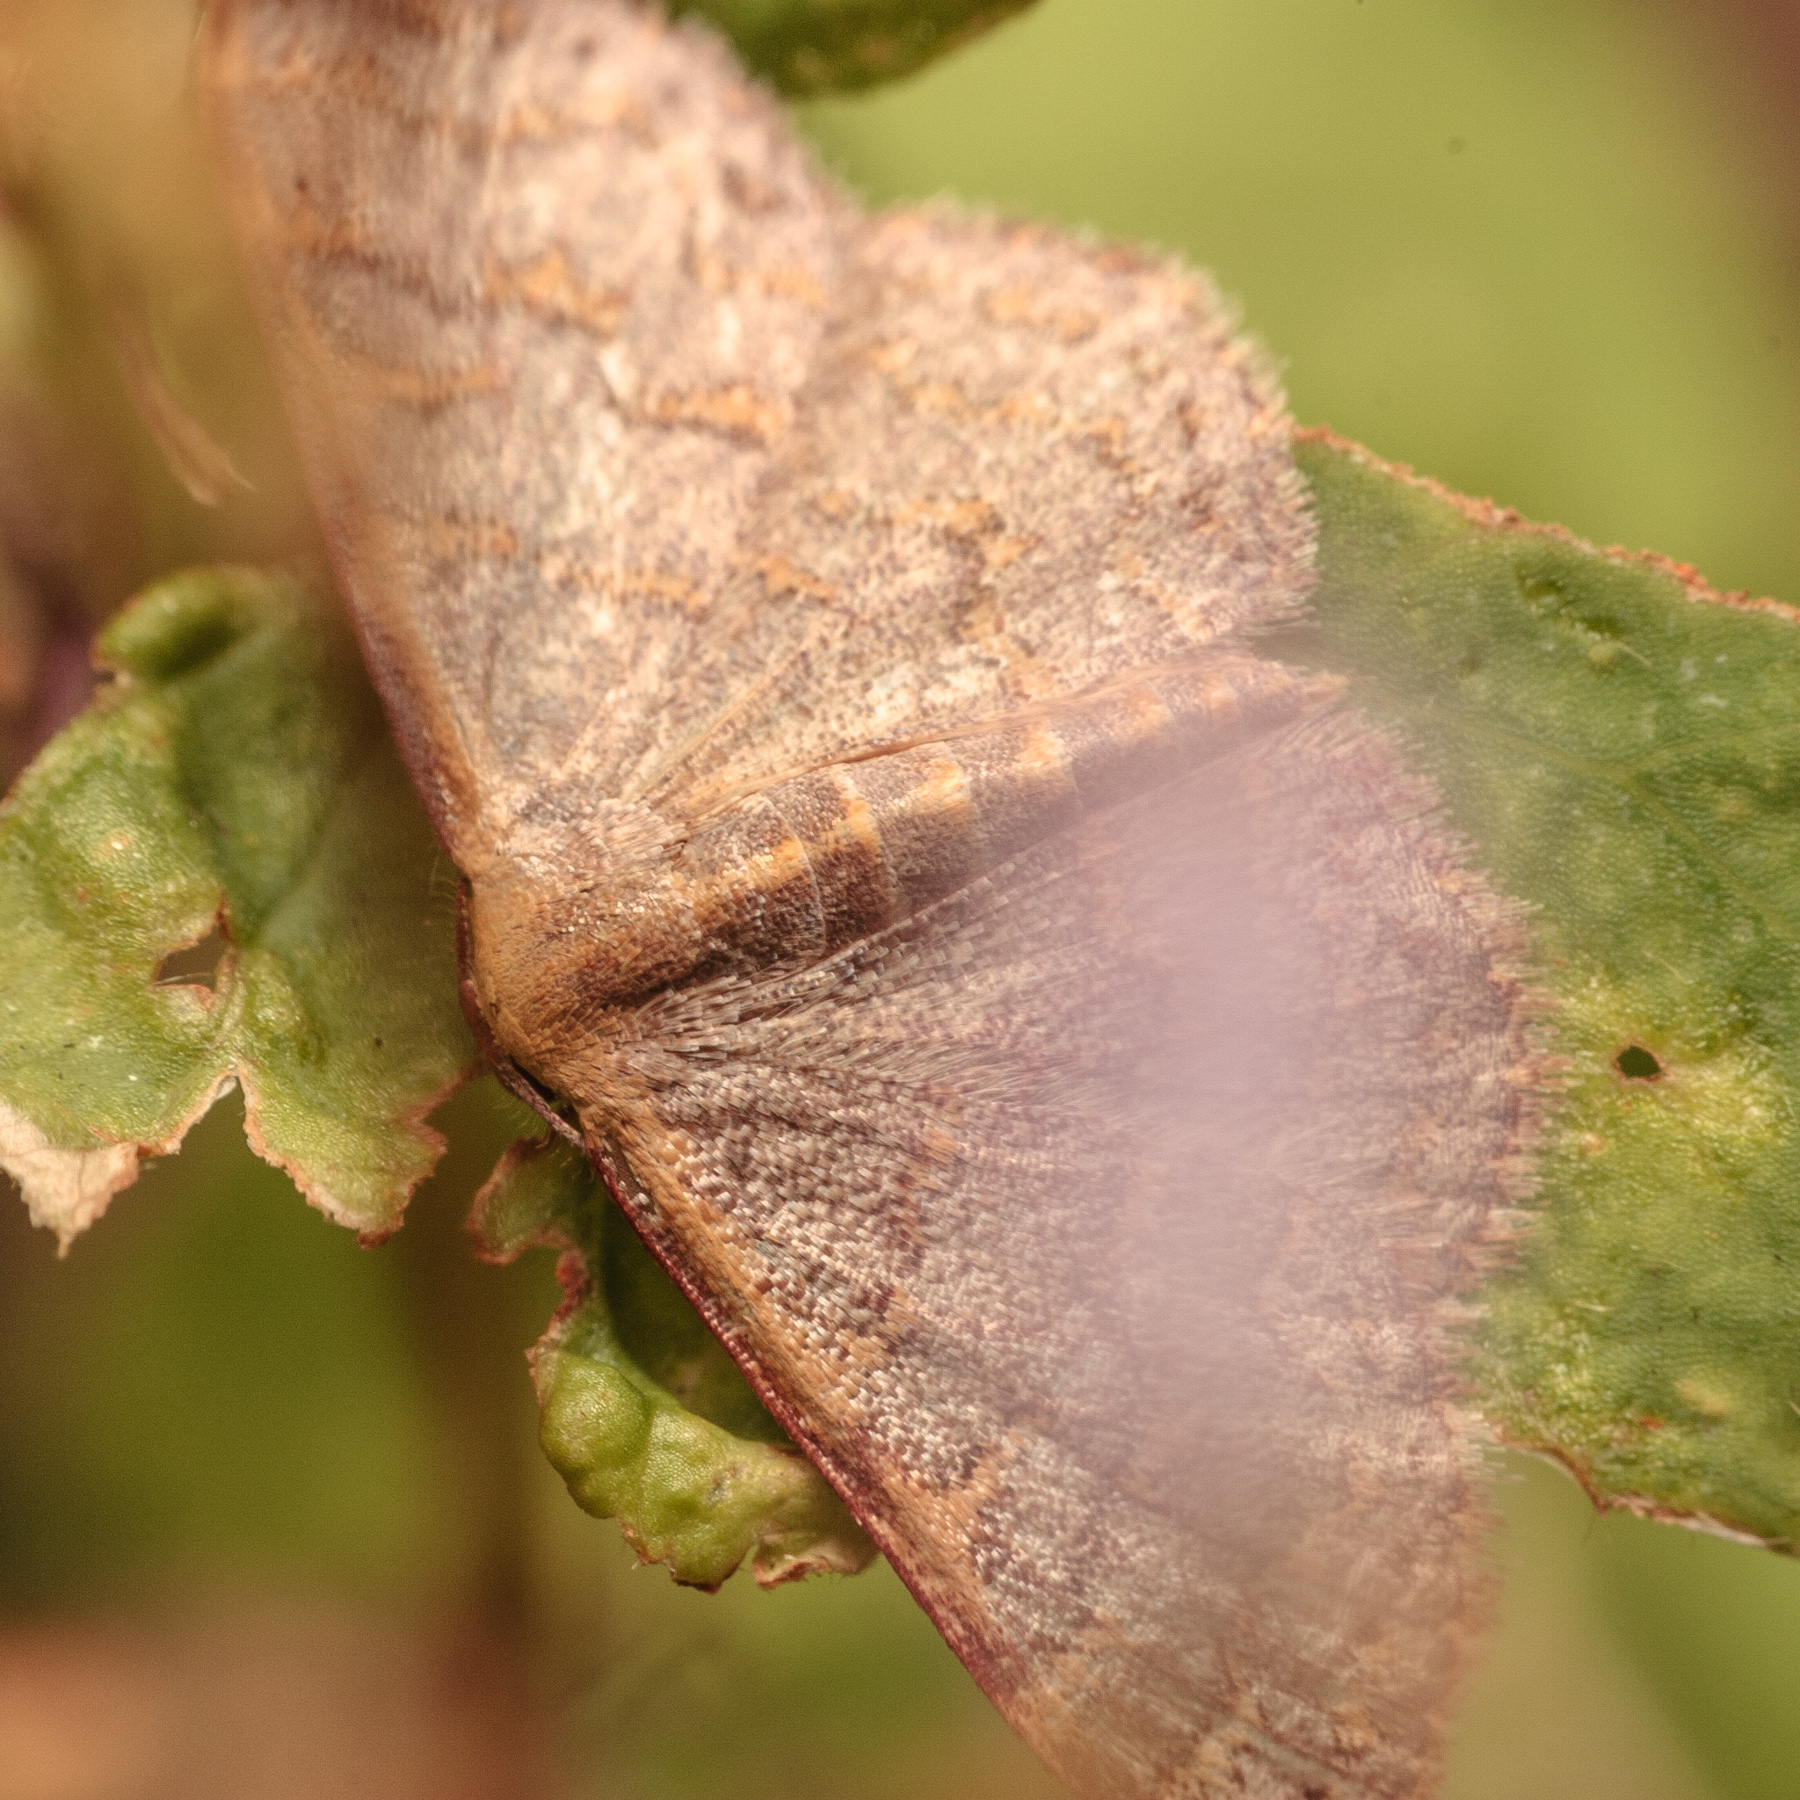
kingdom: Animalia
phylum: Arthropoda
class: Insecta
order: Lepidoptera
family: Geometridae
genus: Leptostales
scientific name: Leptostales pannaria
